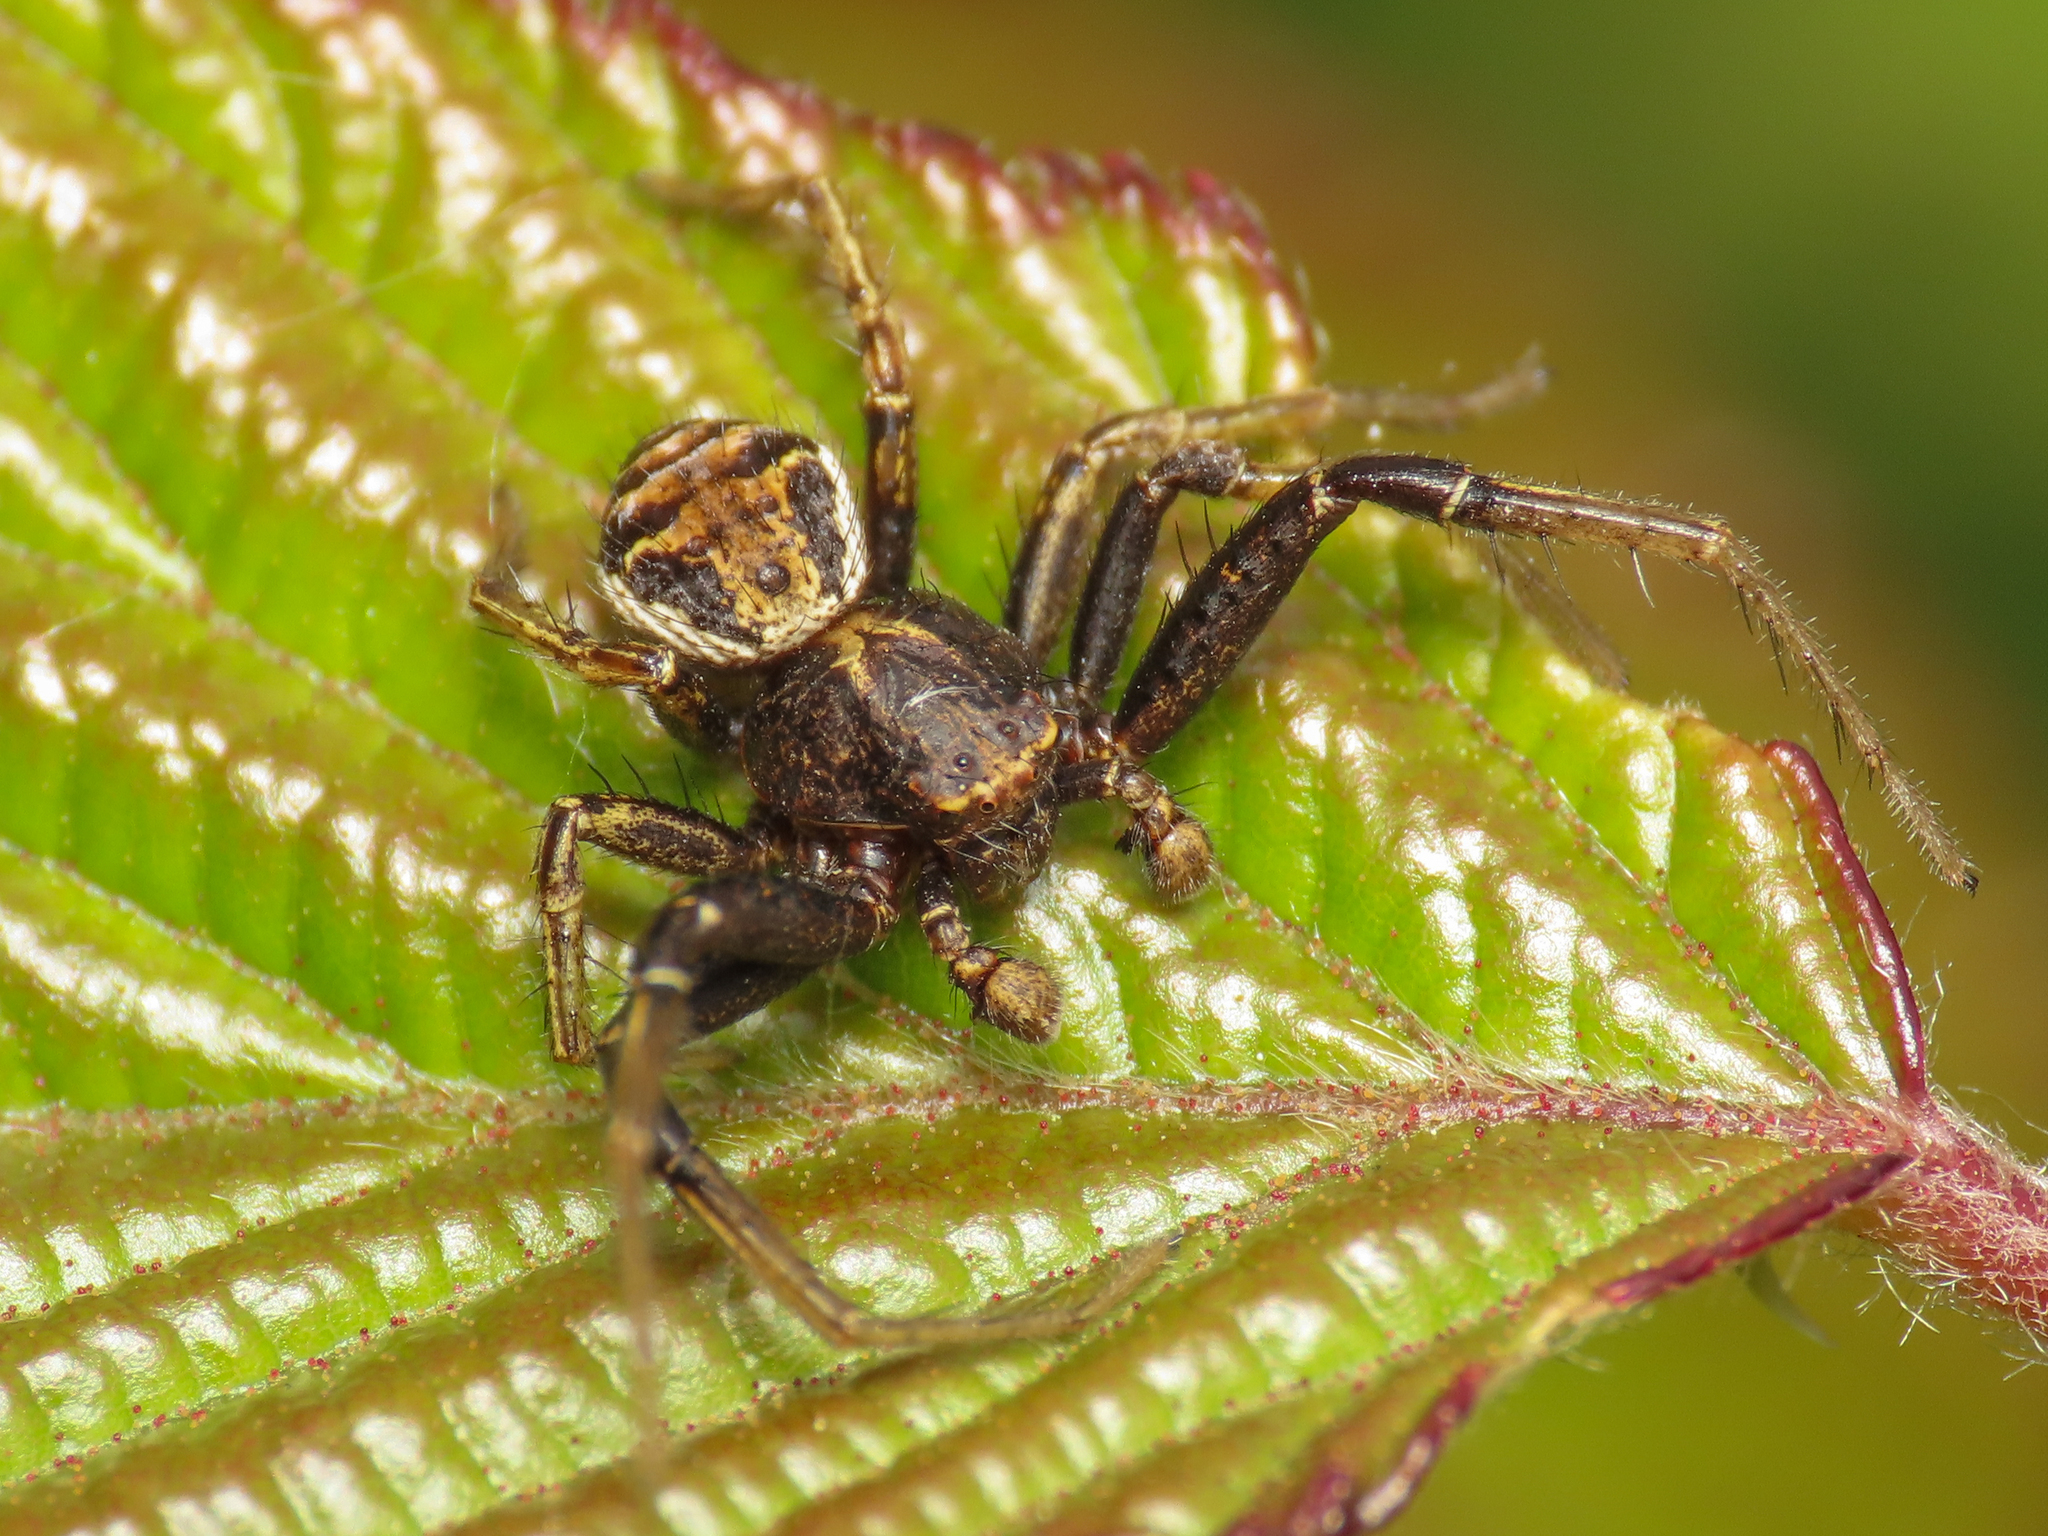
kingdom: Animalia
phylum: Arthropoda
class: Arachnida
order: Araneae
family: Thomisidae
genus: Xysticus
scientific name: Xysticus kochi
